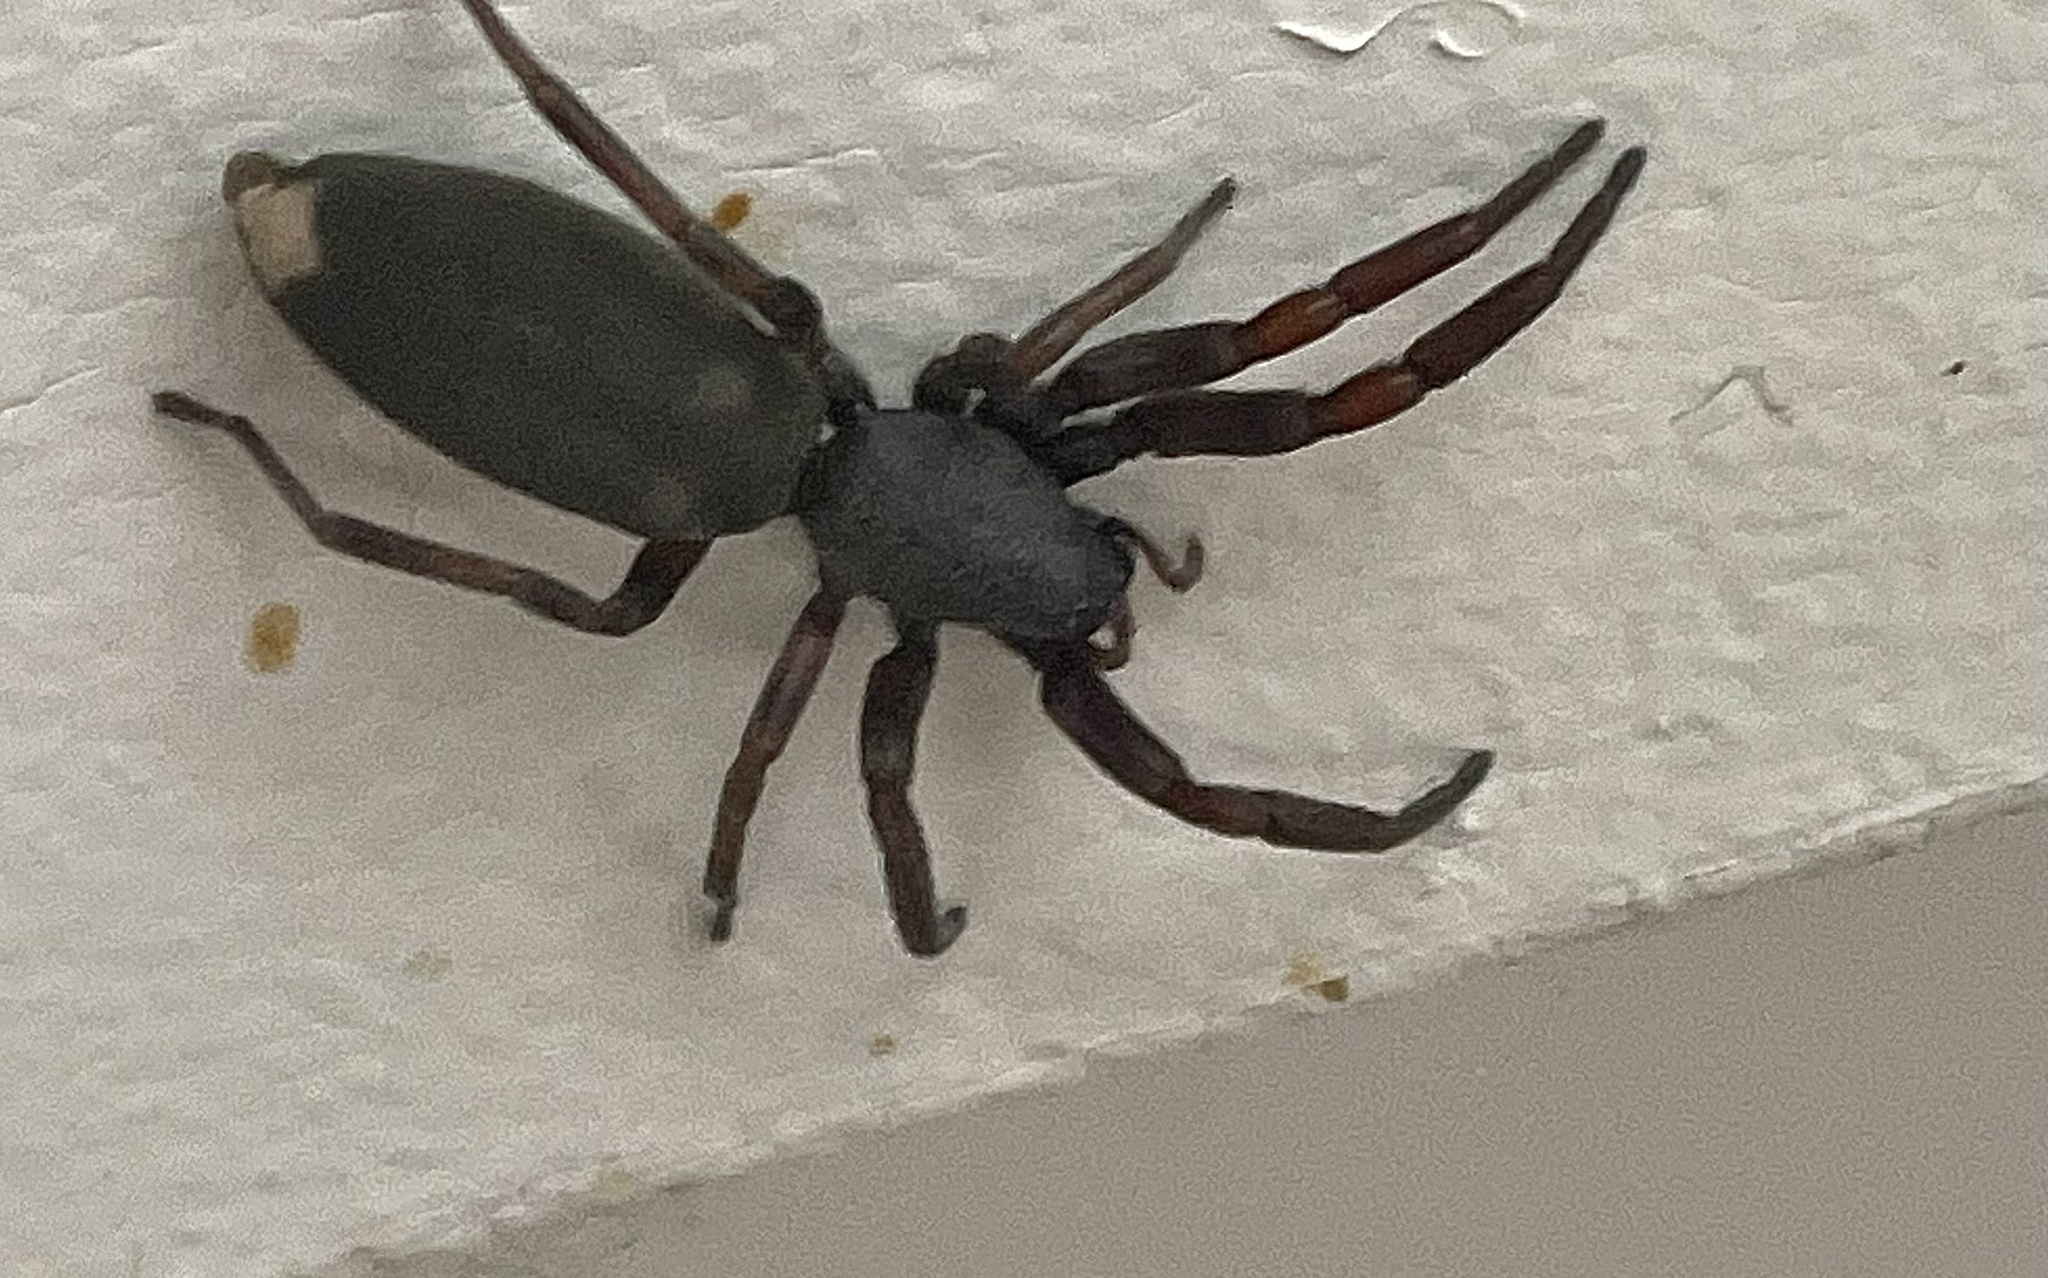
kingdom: Animalia
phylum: Arthropoda
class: Arachnida
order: Araneae
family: Lamponidae
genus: Lampona
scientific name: Lampona murina
